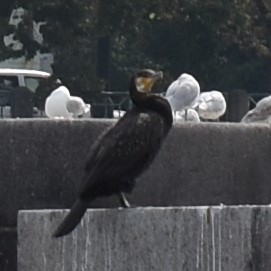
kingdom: Animalia
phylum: Chordata
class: Aves
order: Suliformes
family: Phalacrocoracidae
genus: Phalacrocorax
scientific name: Phalacrocorax carbo
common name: Great cormorant
